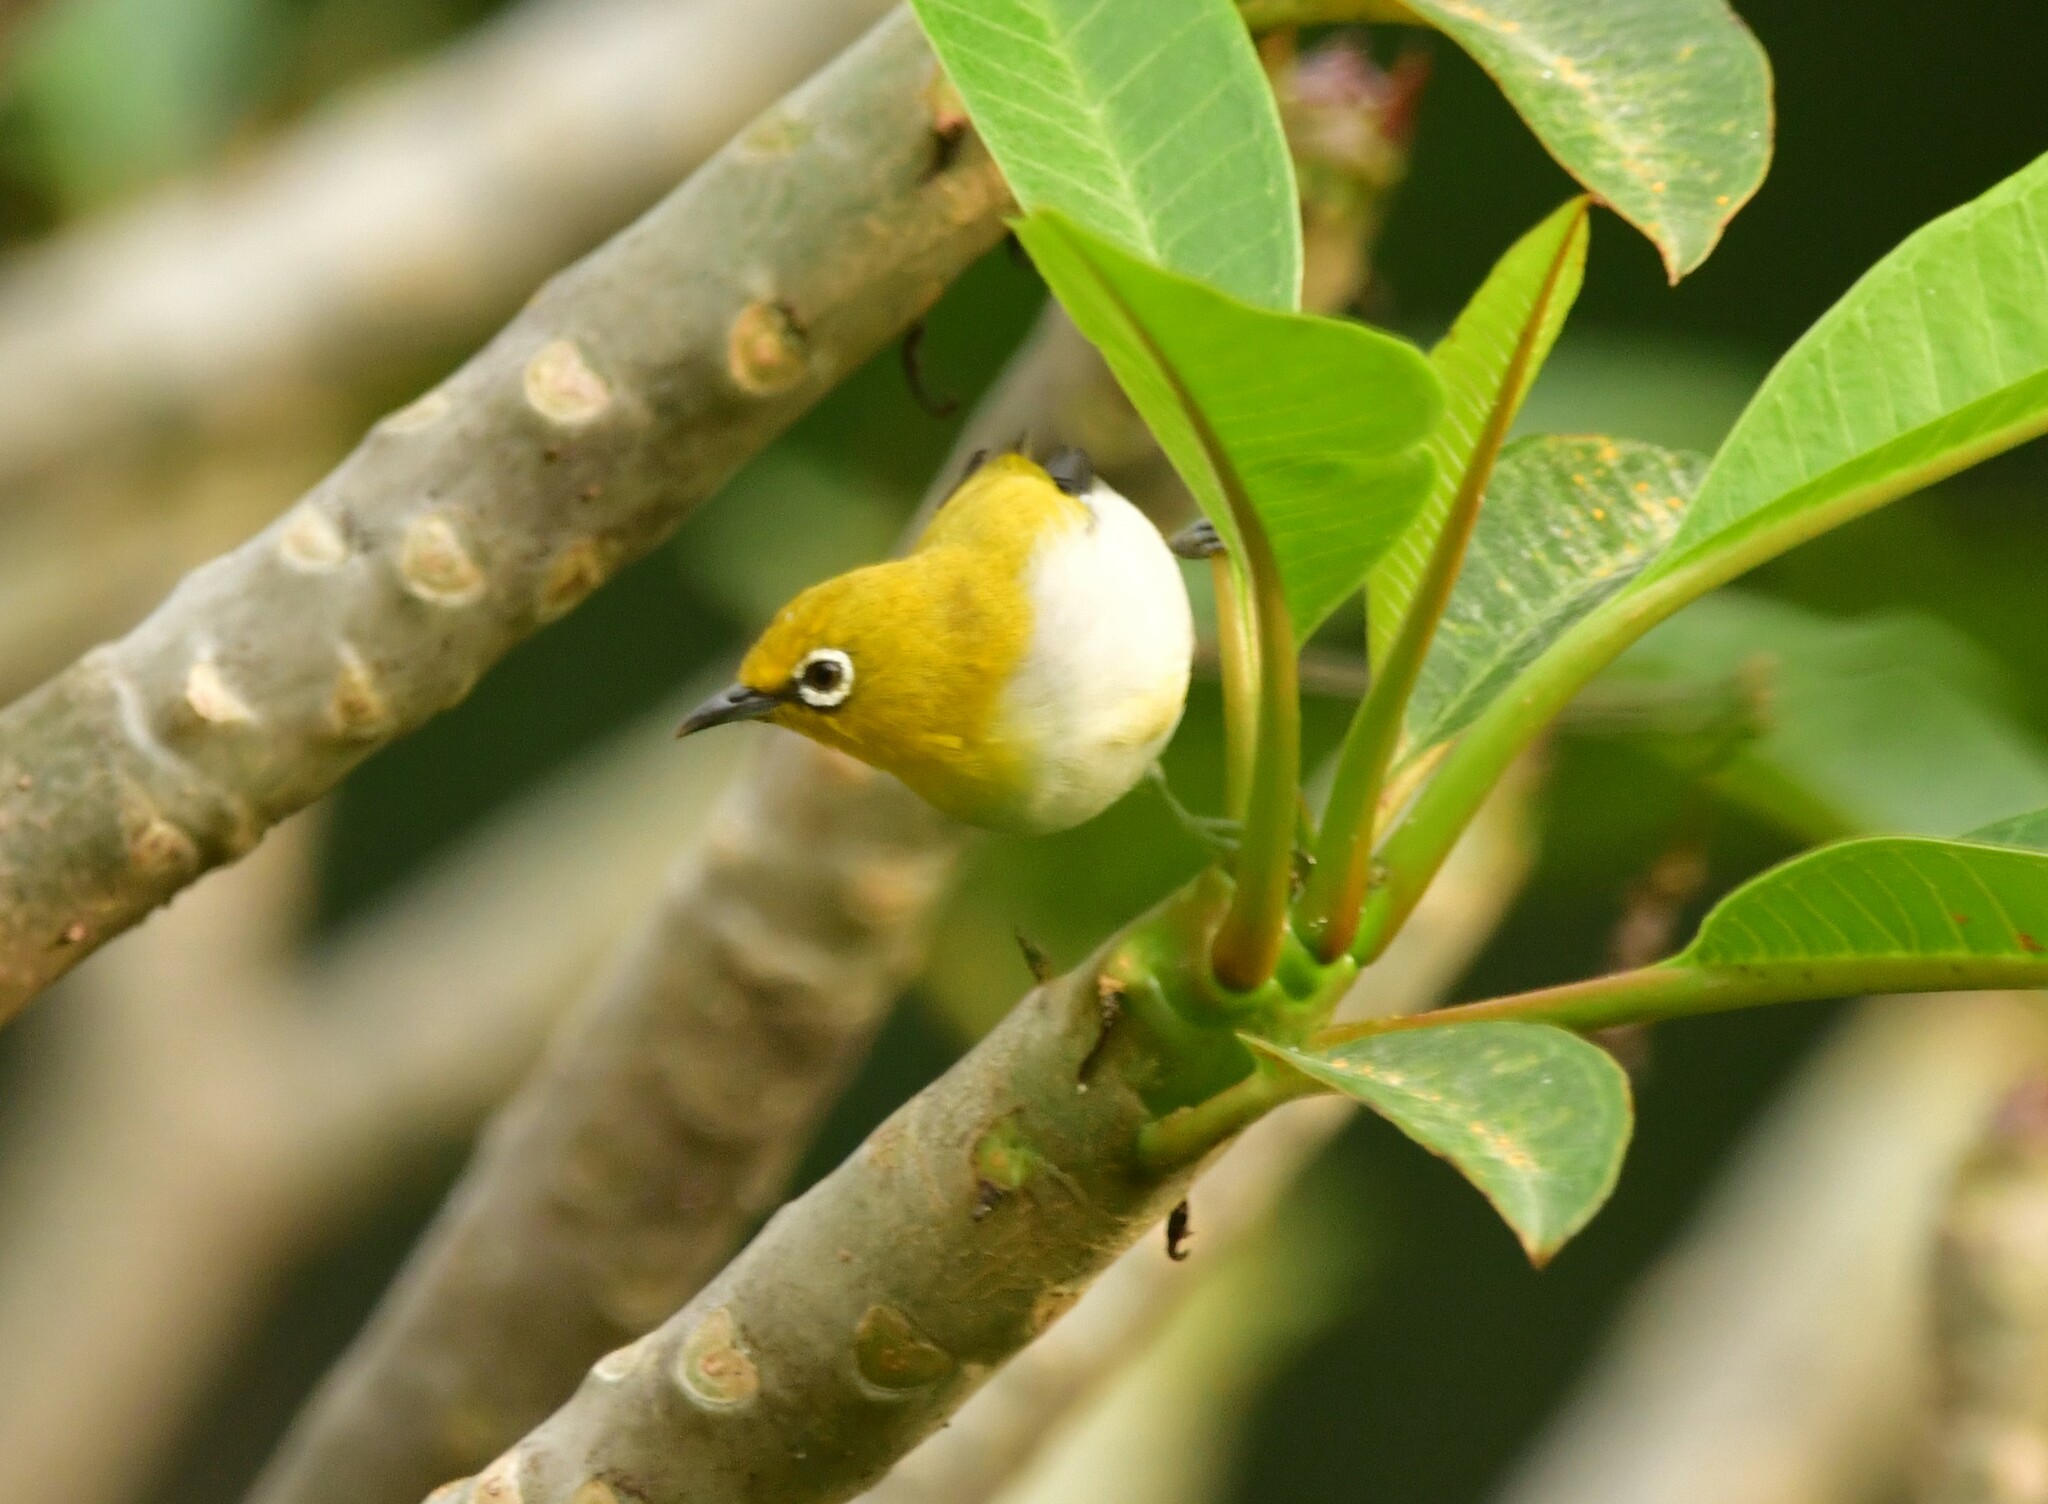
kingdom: Animalia
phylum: Chordata
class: Aves
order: Passeriformes
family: Zosteropidae
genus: Zosterops
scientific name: Zosterops palpebrosus
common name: Oriental white-eye
